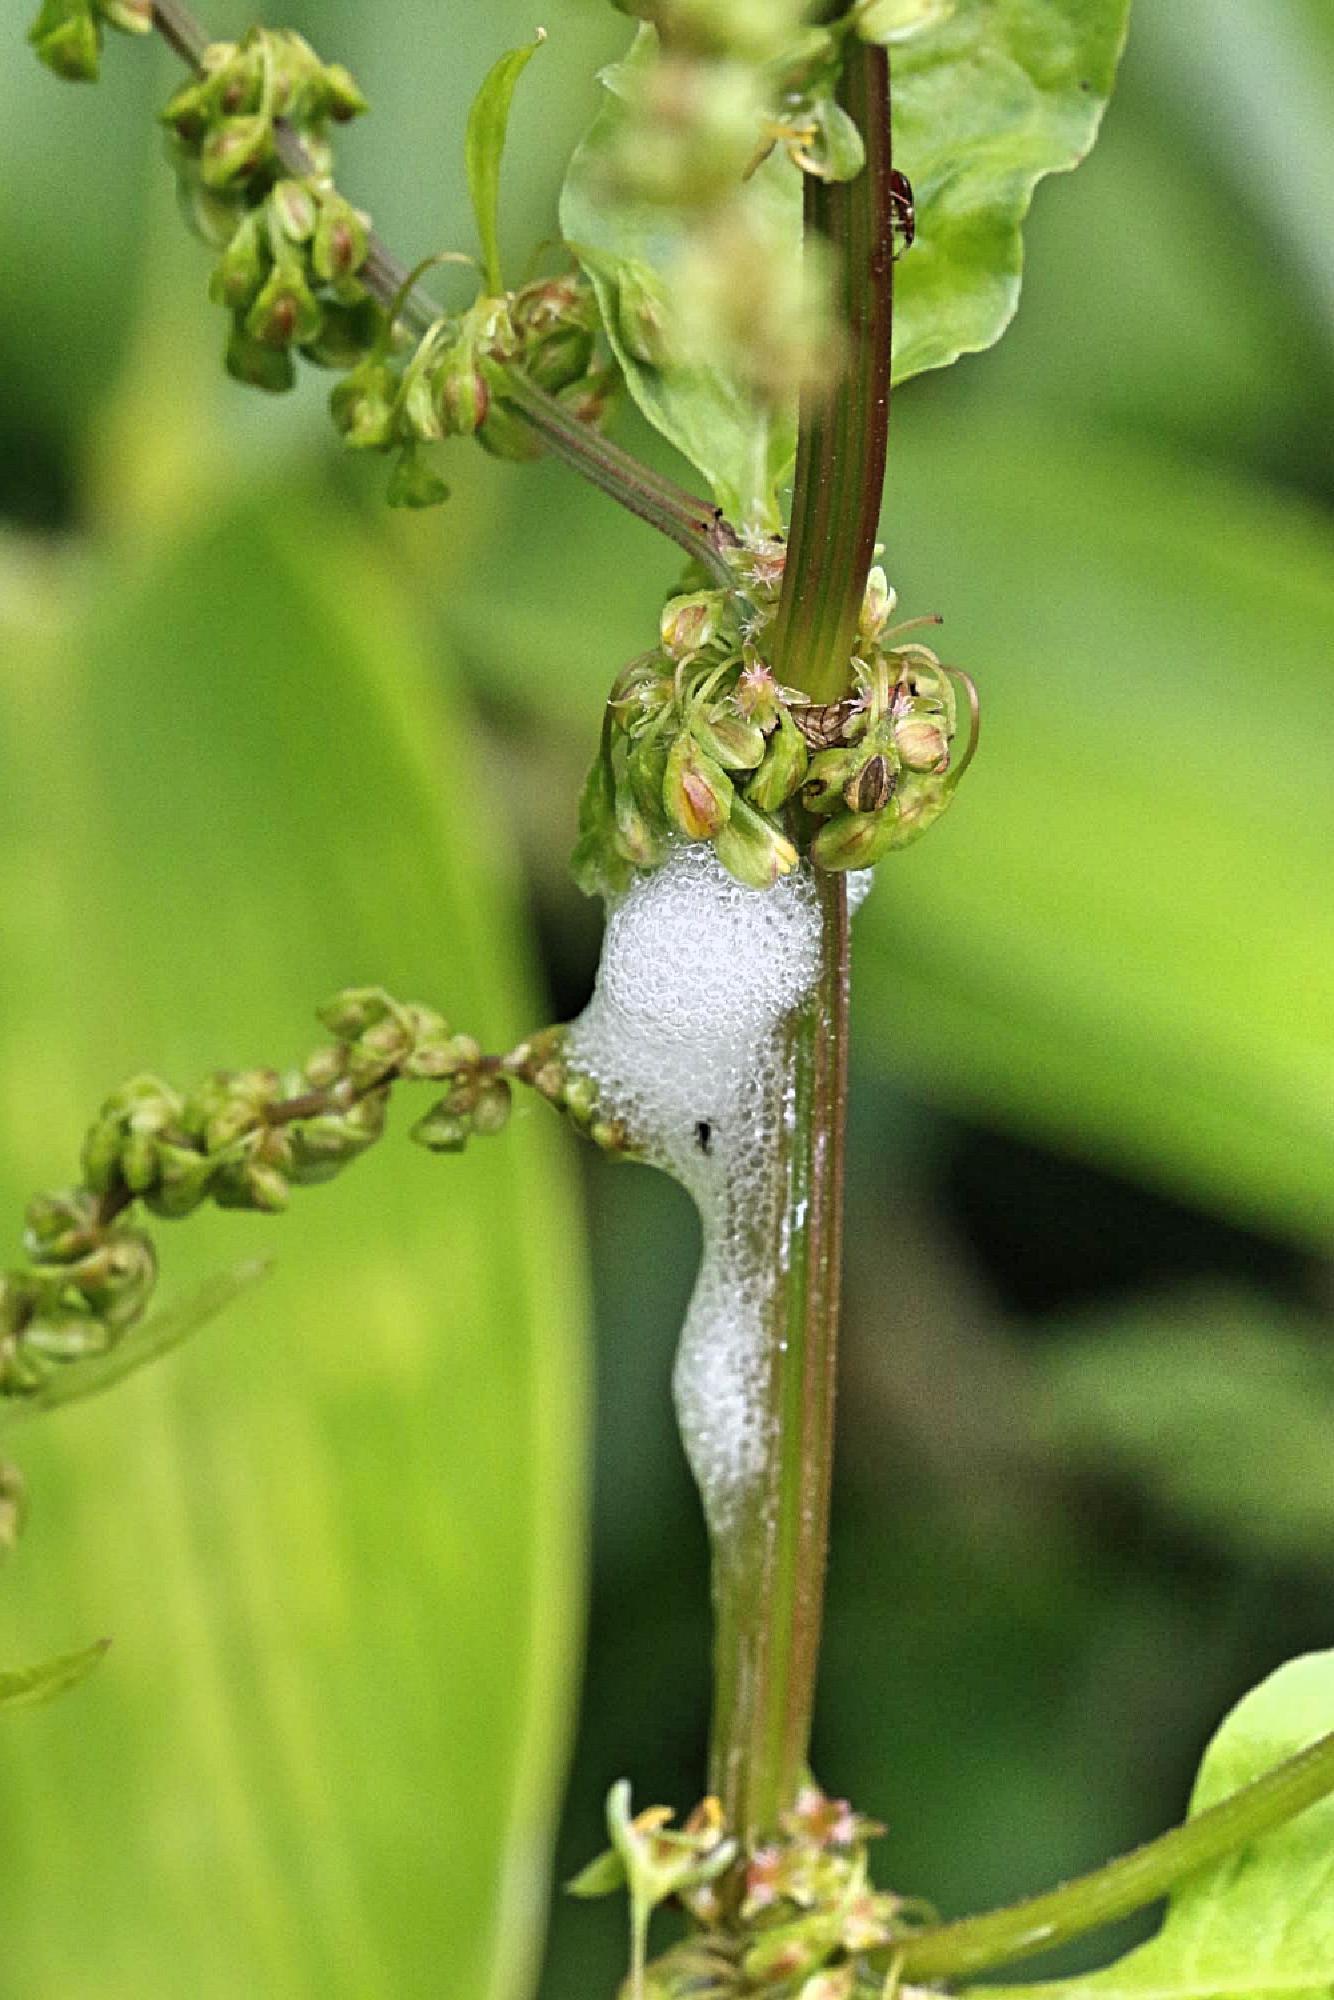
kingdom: Animalia
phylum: Arthropoda
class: Insecta
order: Hemiptera
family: Aphrophoridae
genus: Philaenus
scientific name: Philaenus spumarius
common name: Meadow spittlebug
